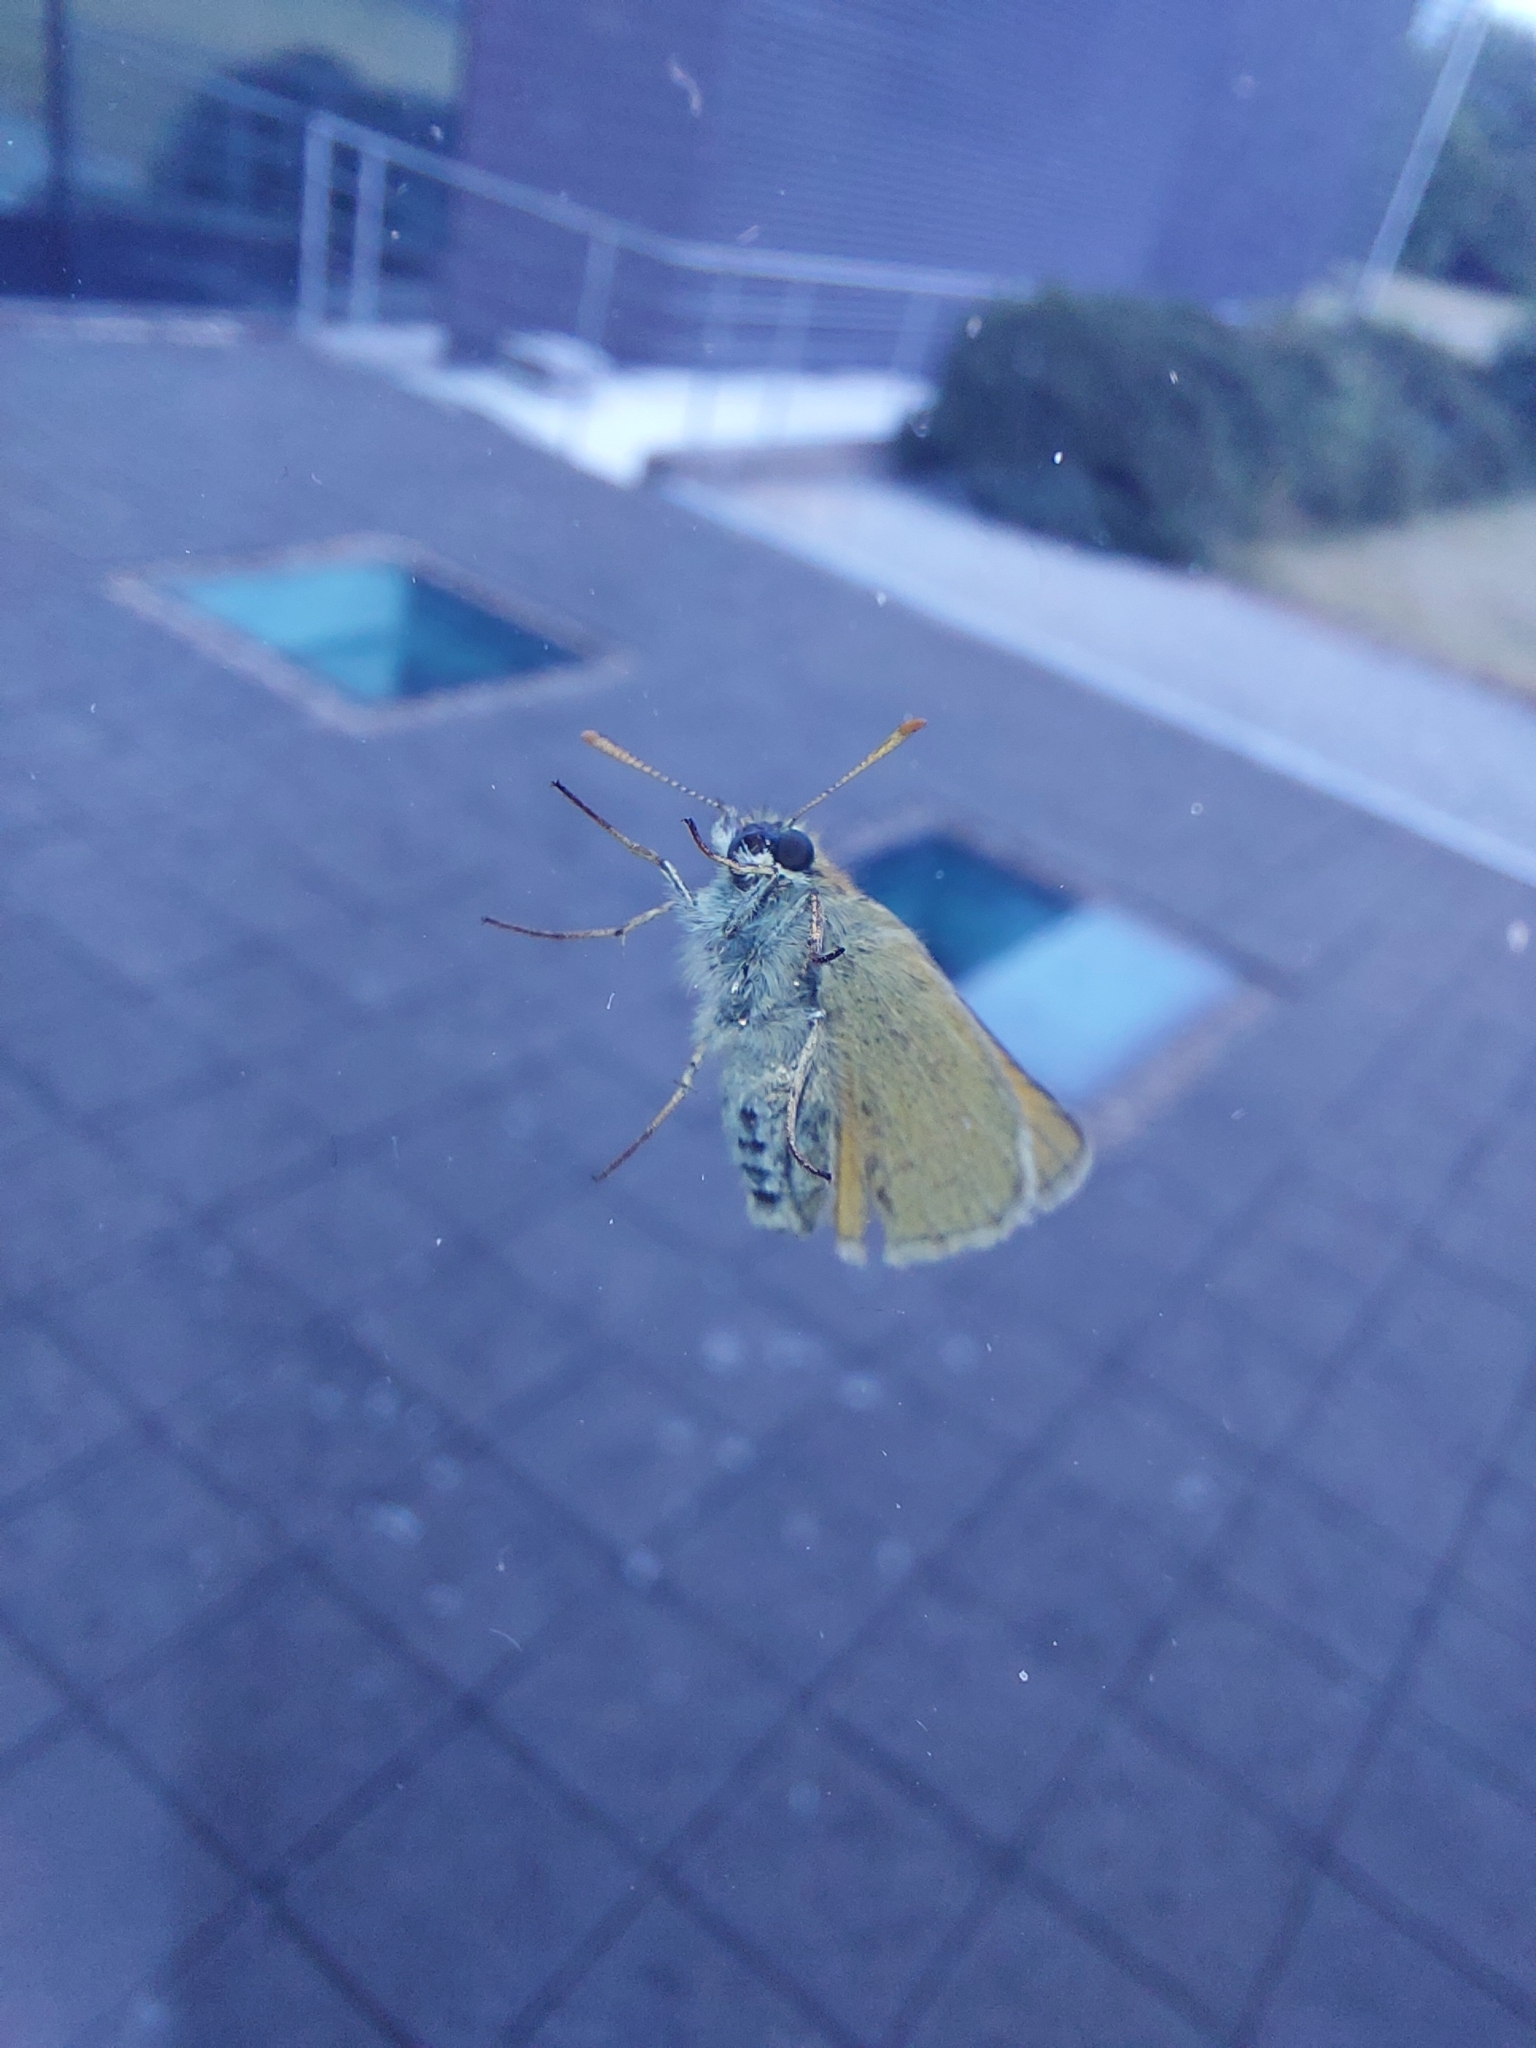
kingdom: Animalia
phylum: Arthropoda
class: Insecta
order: Lepidoptera
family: Hesperiidae
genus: Thymelicus
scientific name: Thymelicus sylvestris
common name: Small skipper
